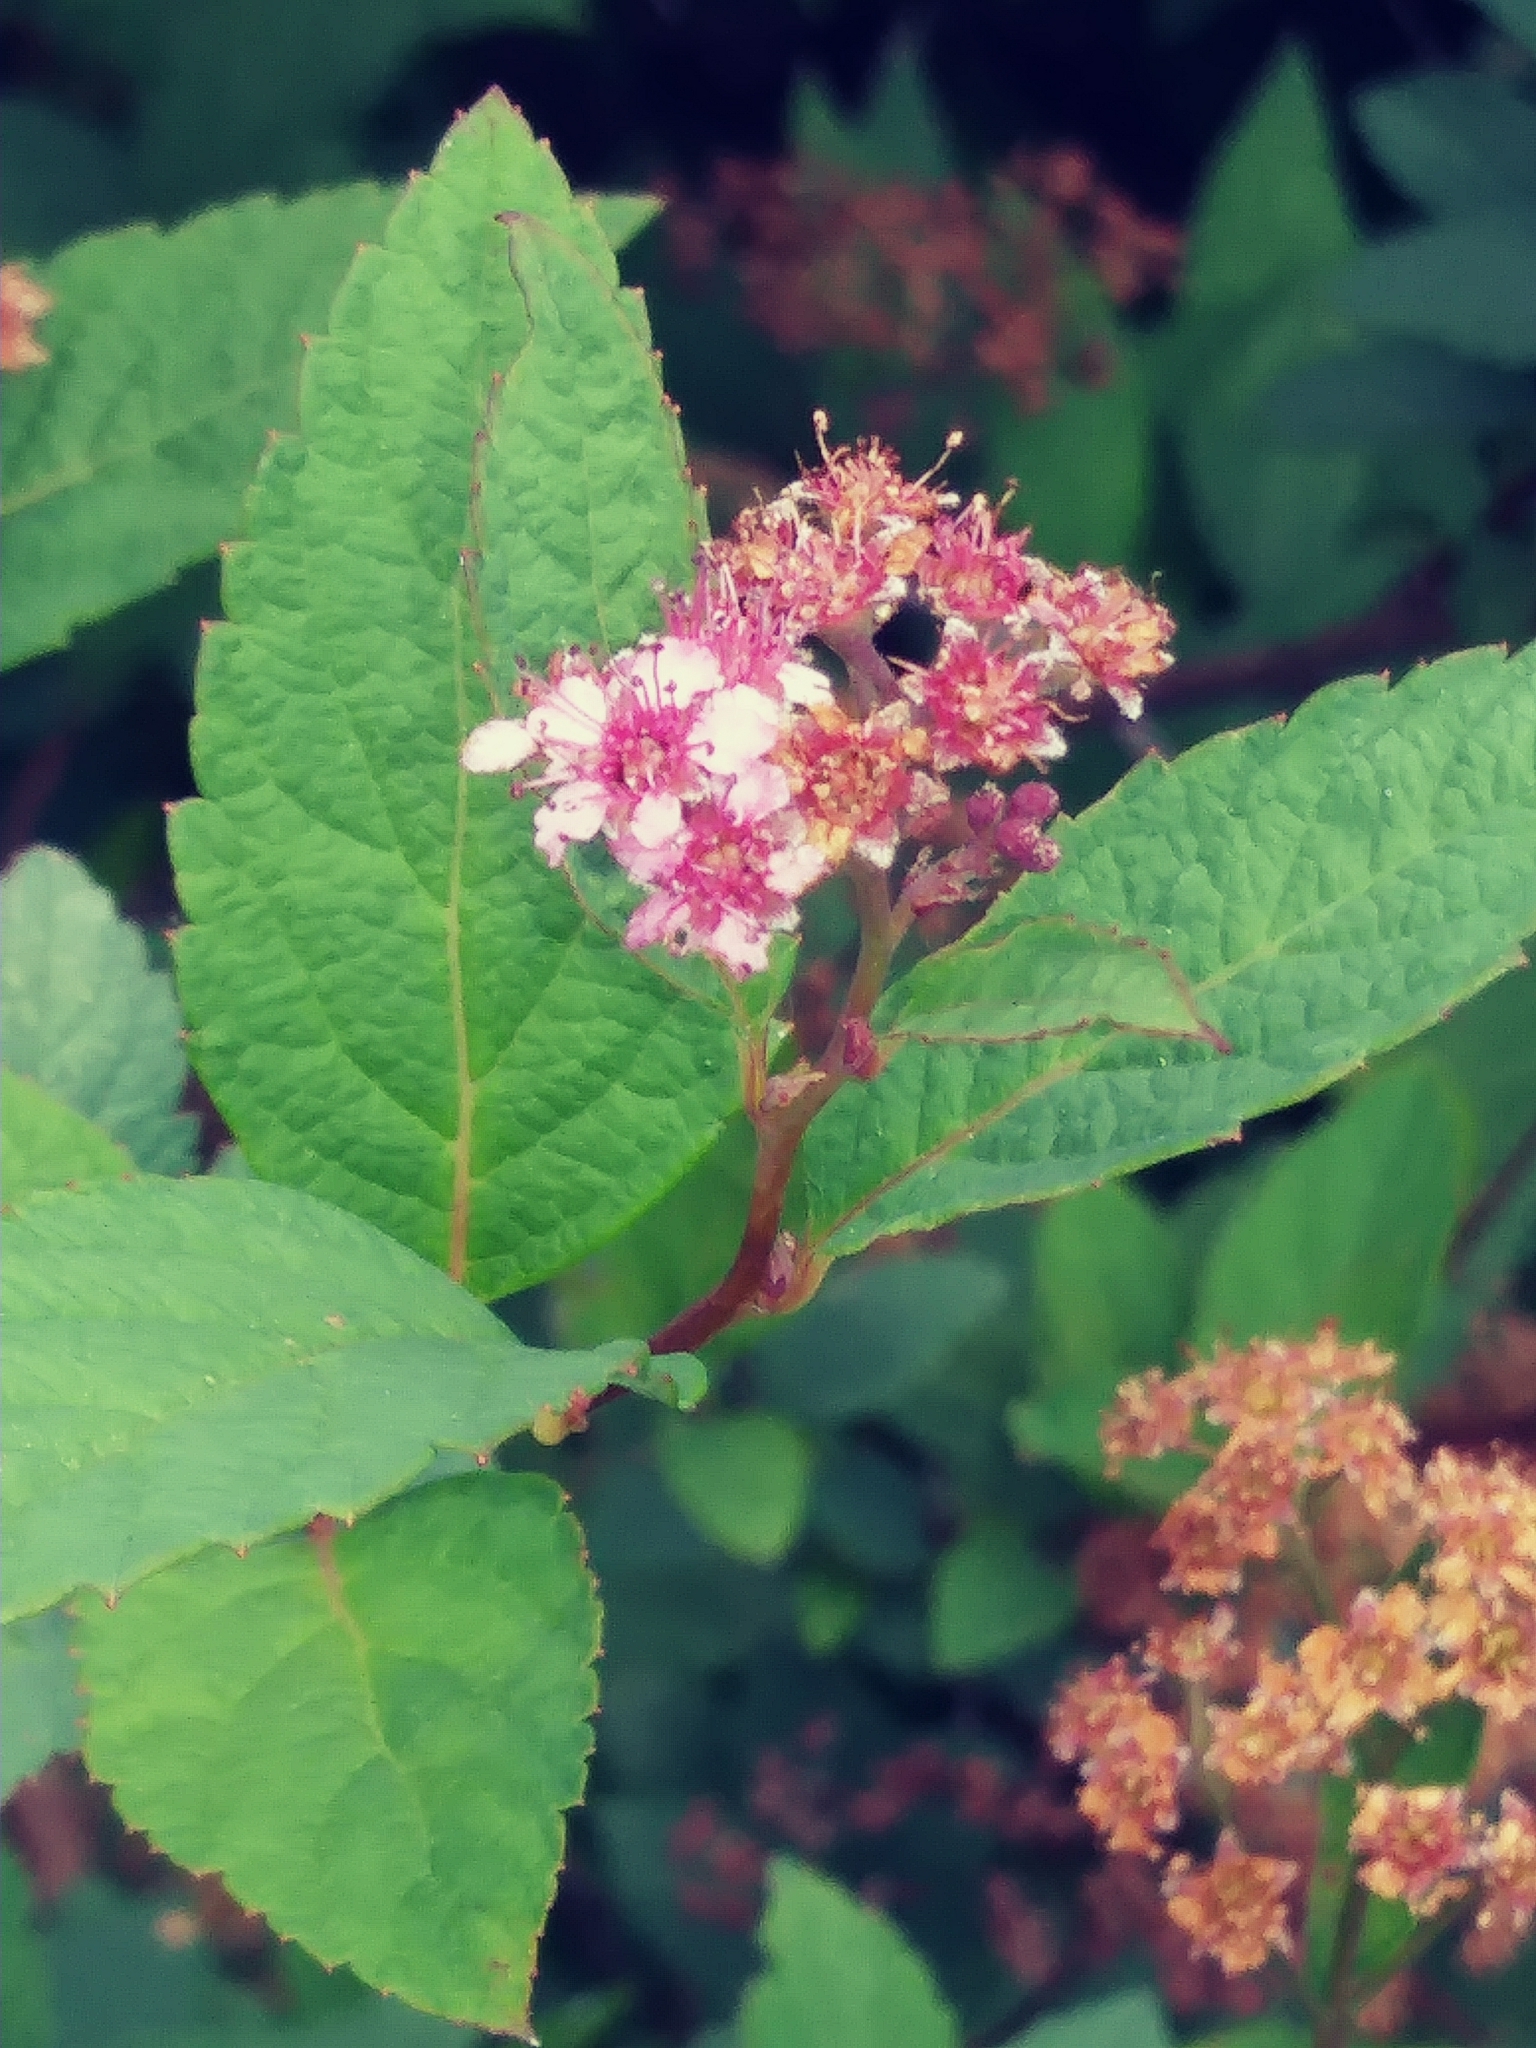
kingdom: Plantae
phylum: Tracheophyta
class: Magnoliopsida
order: Rosales
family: Rosaceae
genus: Spiraea
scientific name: Spiraea japonica
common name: Japanese spiraea
